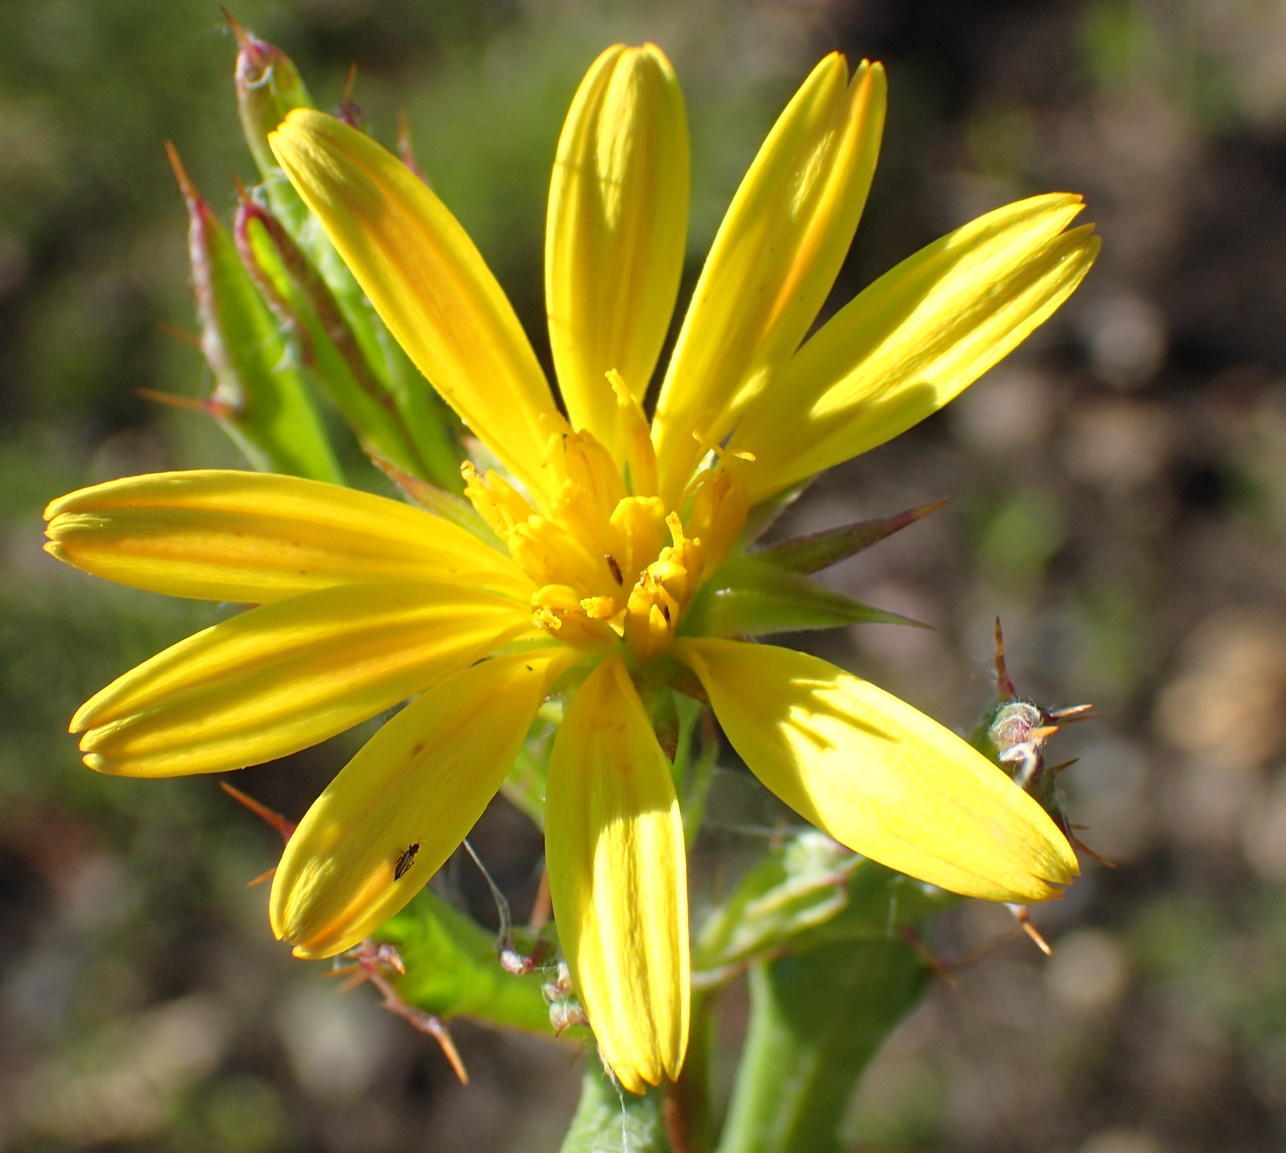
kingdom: Plantae
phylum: Tracheophyta
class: Magnoliopsida
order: Asterales
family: Asteraceae
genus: Cullumia
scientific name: Cullumia aculeata
